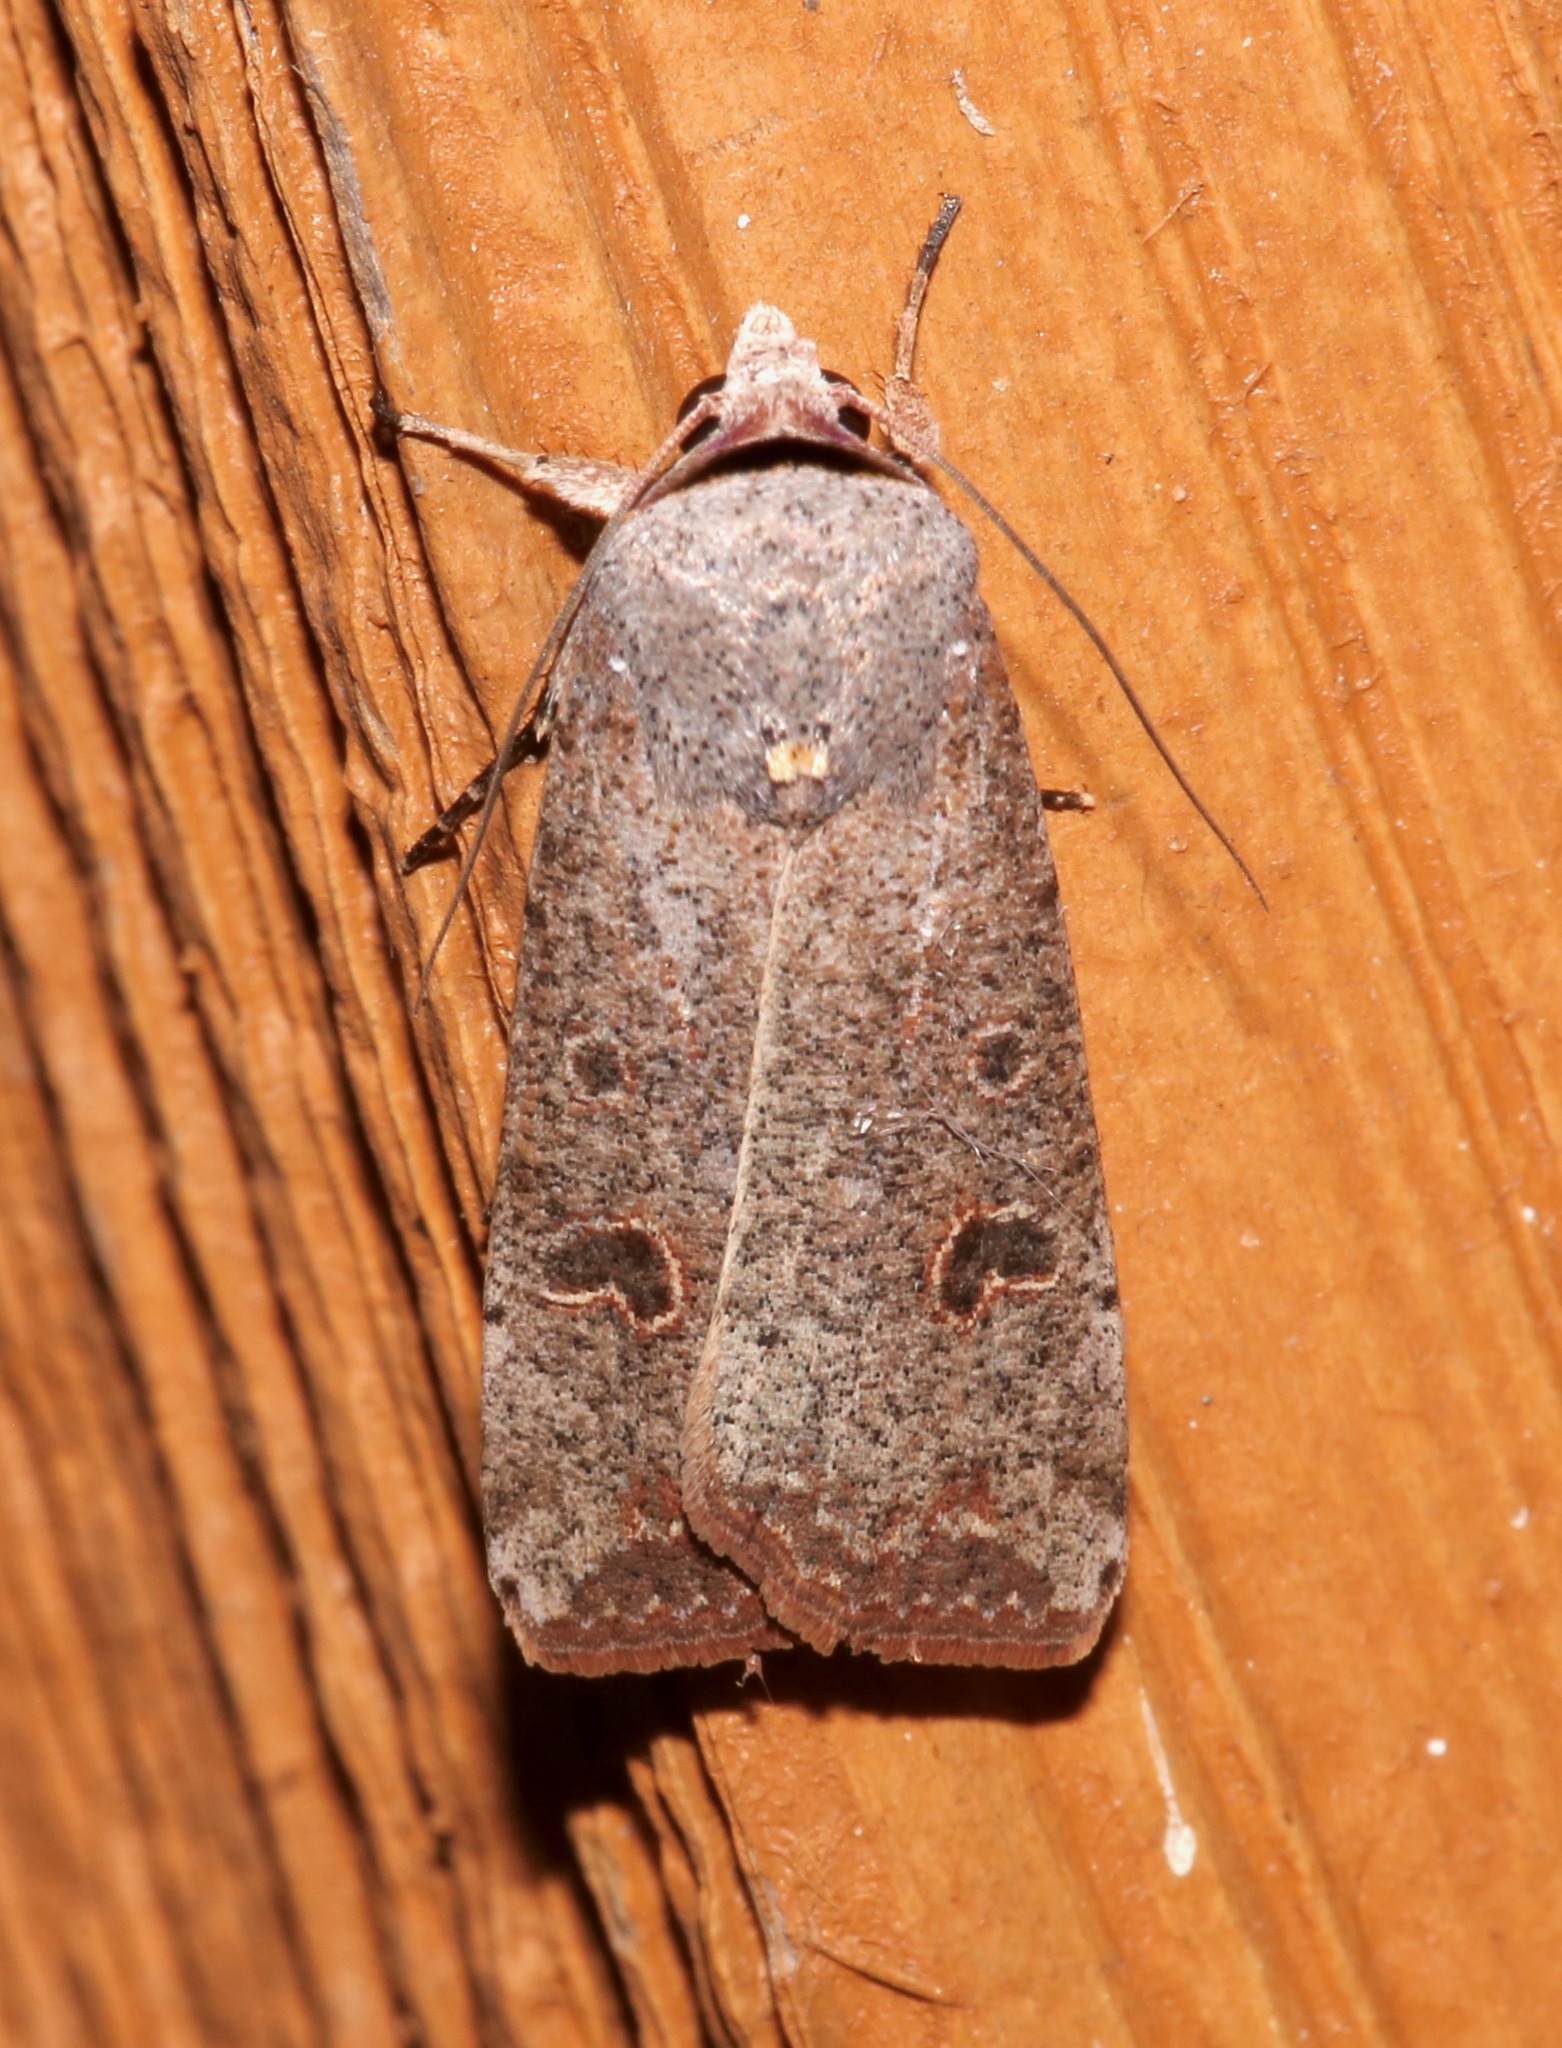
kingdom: Animalia
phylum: Arthropoda
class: Insecta
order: Lepidoptera
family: Noctuidae
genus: Anicla
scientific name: Anicla infecta
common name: Green cutworm
